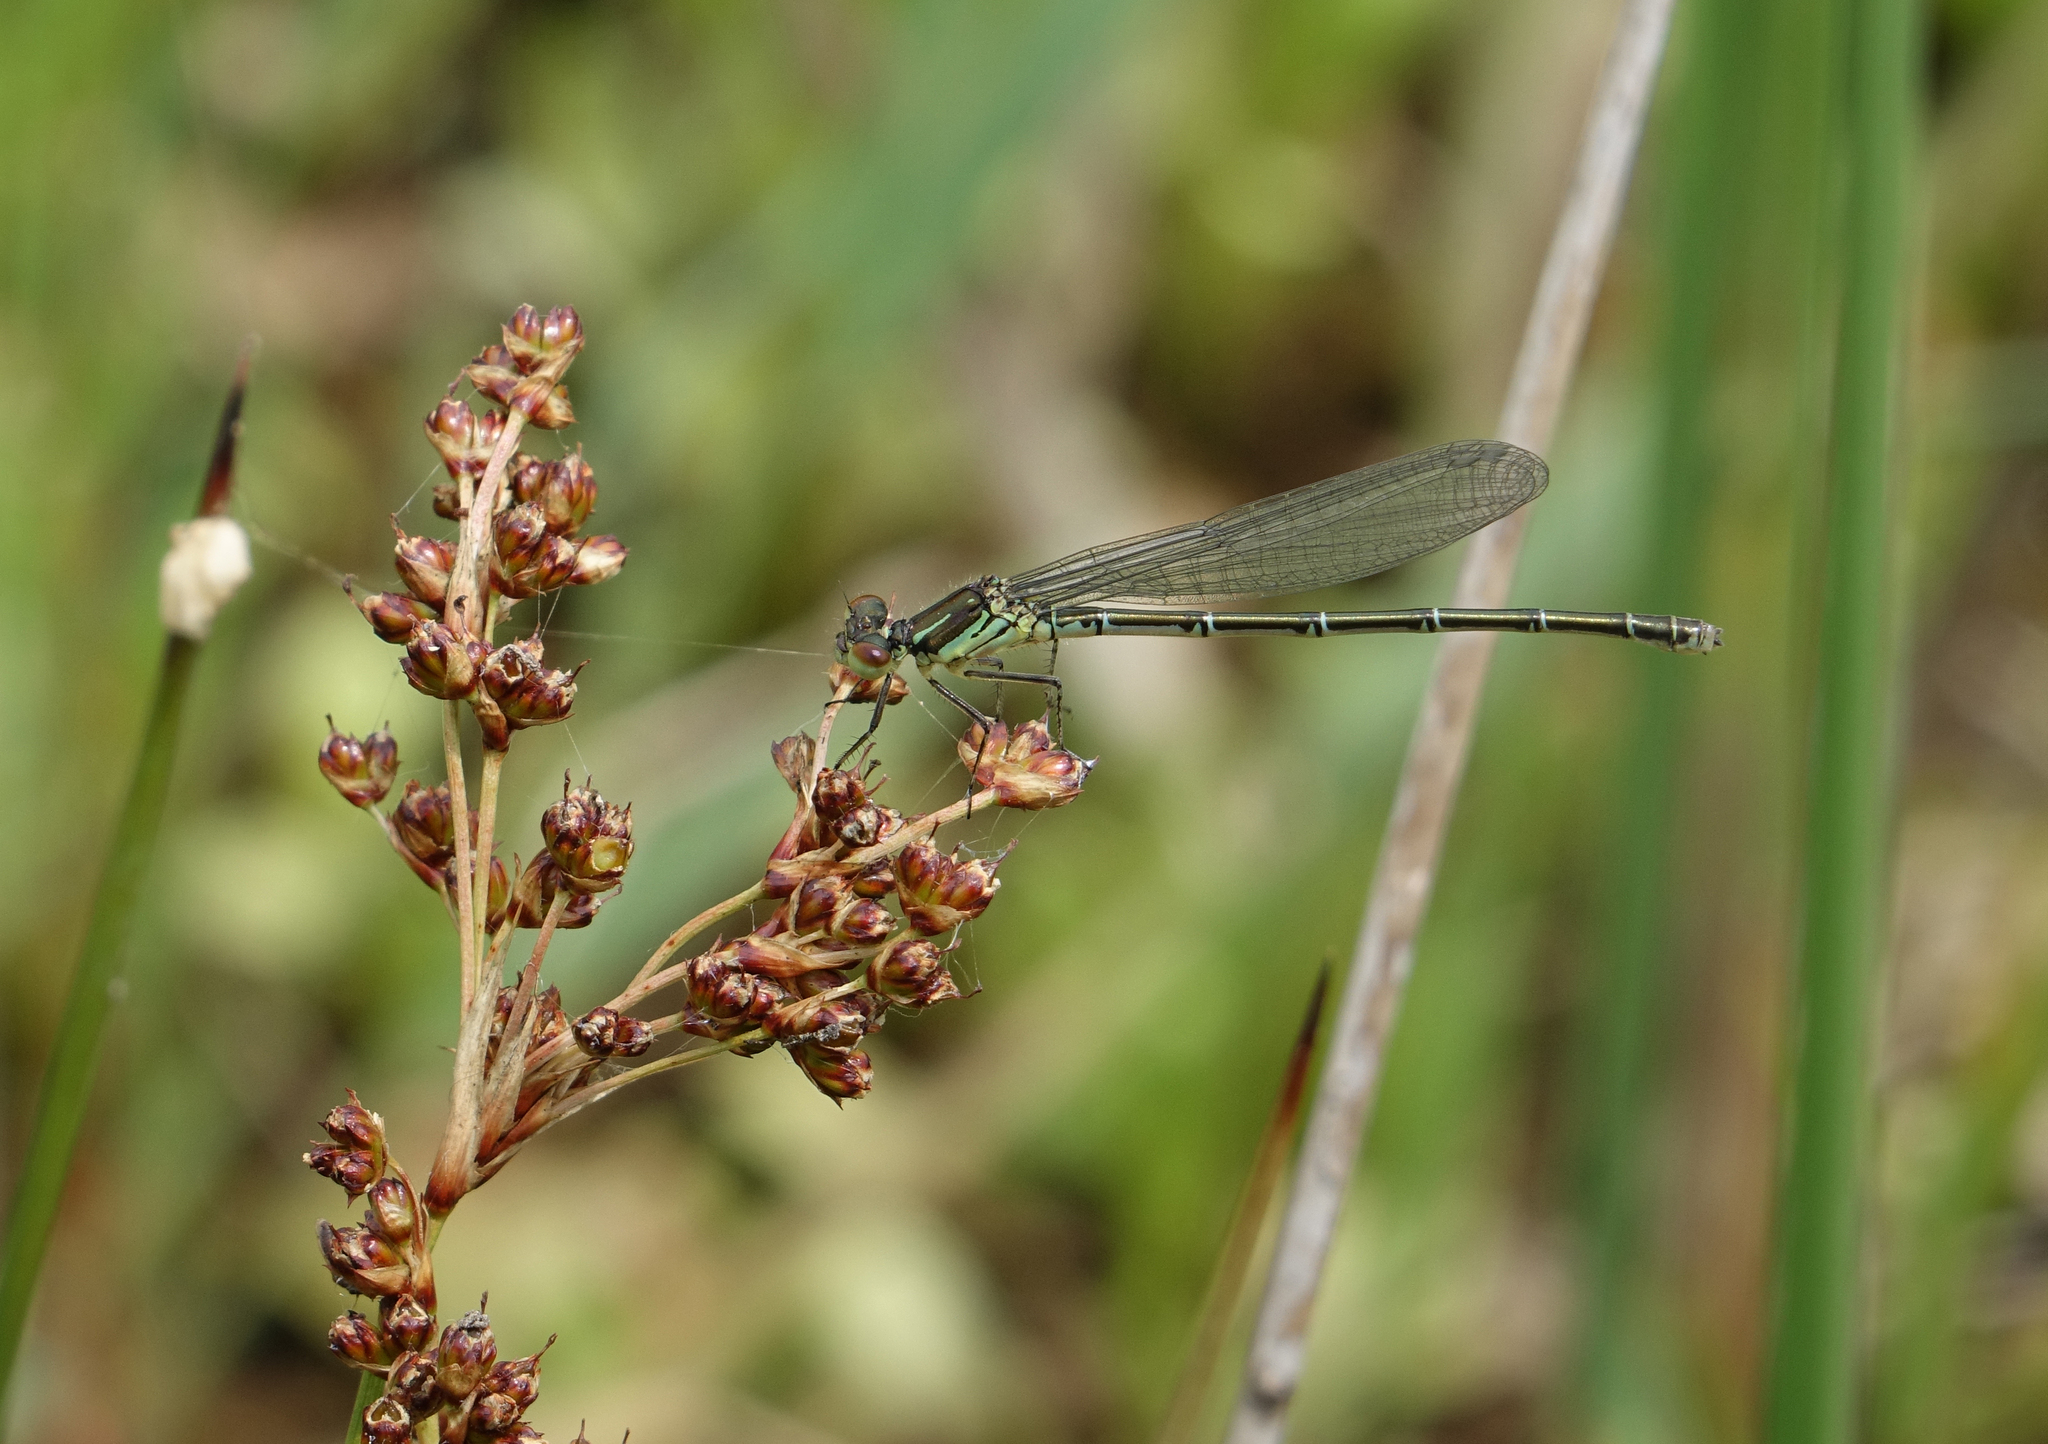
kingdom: Animalia
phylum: Arthropoda
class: Insecta
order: Odonata
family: Coenagrionidae
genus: Erythromma
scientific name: Erythromma viridulum
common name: Small red-eyed damselfly
